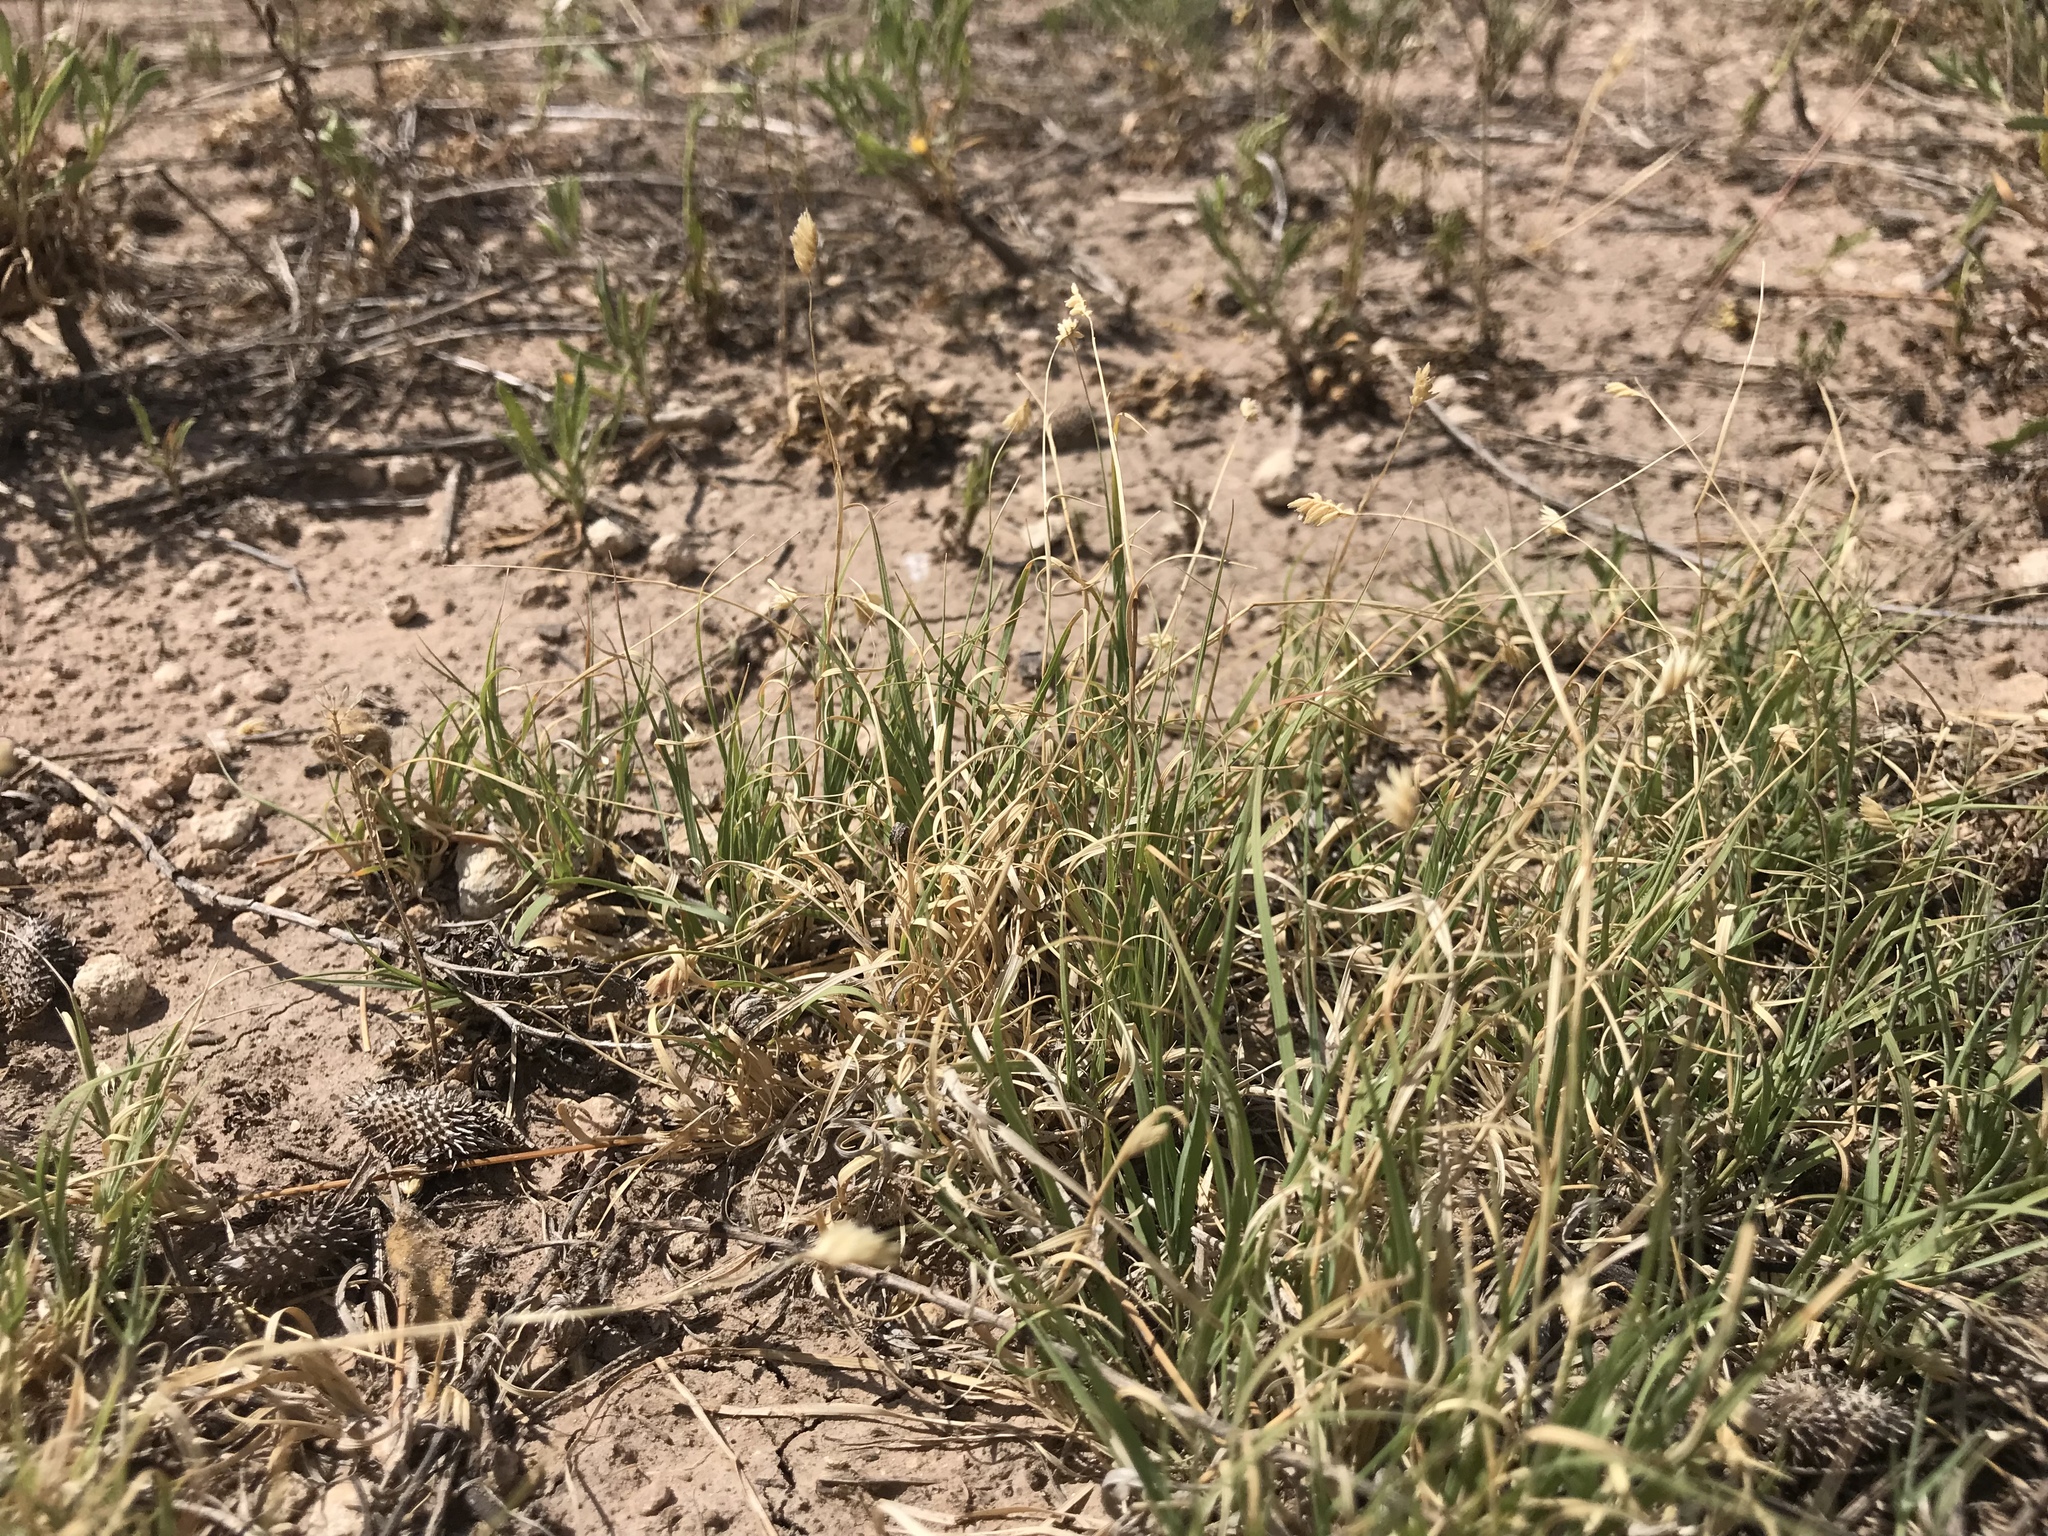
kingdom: Plantae
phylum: Tracheophyta
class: Liliopsida
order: Poales
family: Poaceae
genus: Bouteloua
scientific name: Bouteloua dactyloides
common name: Buffalo grass
